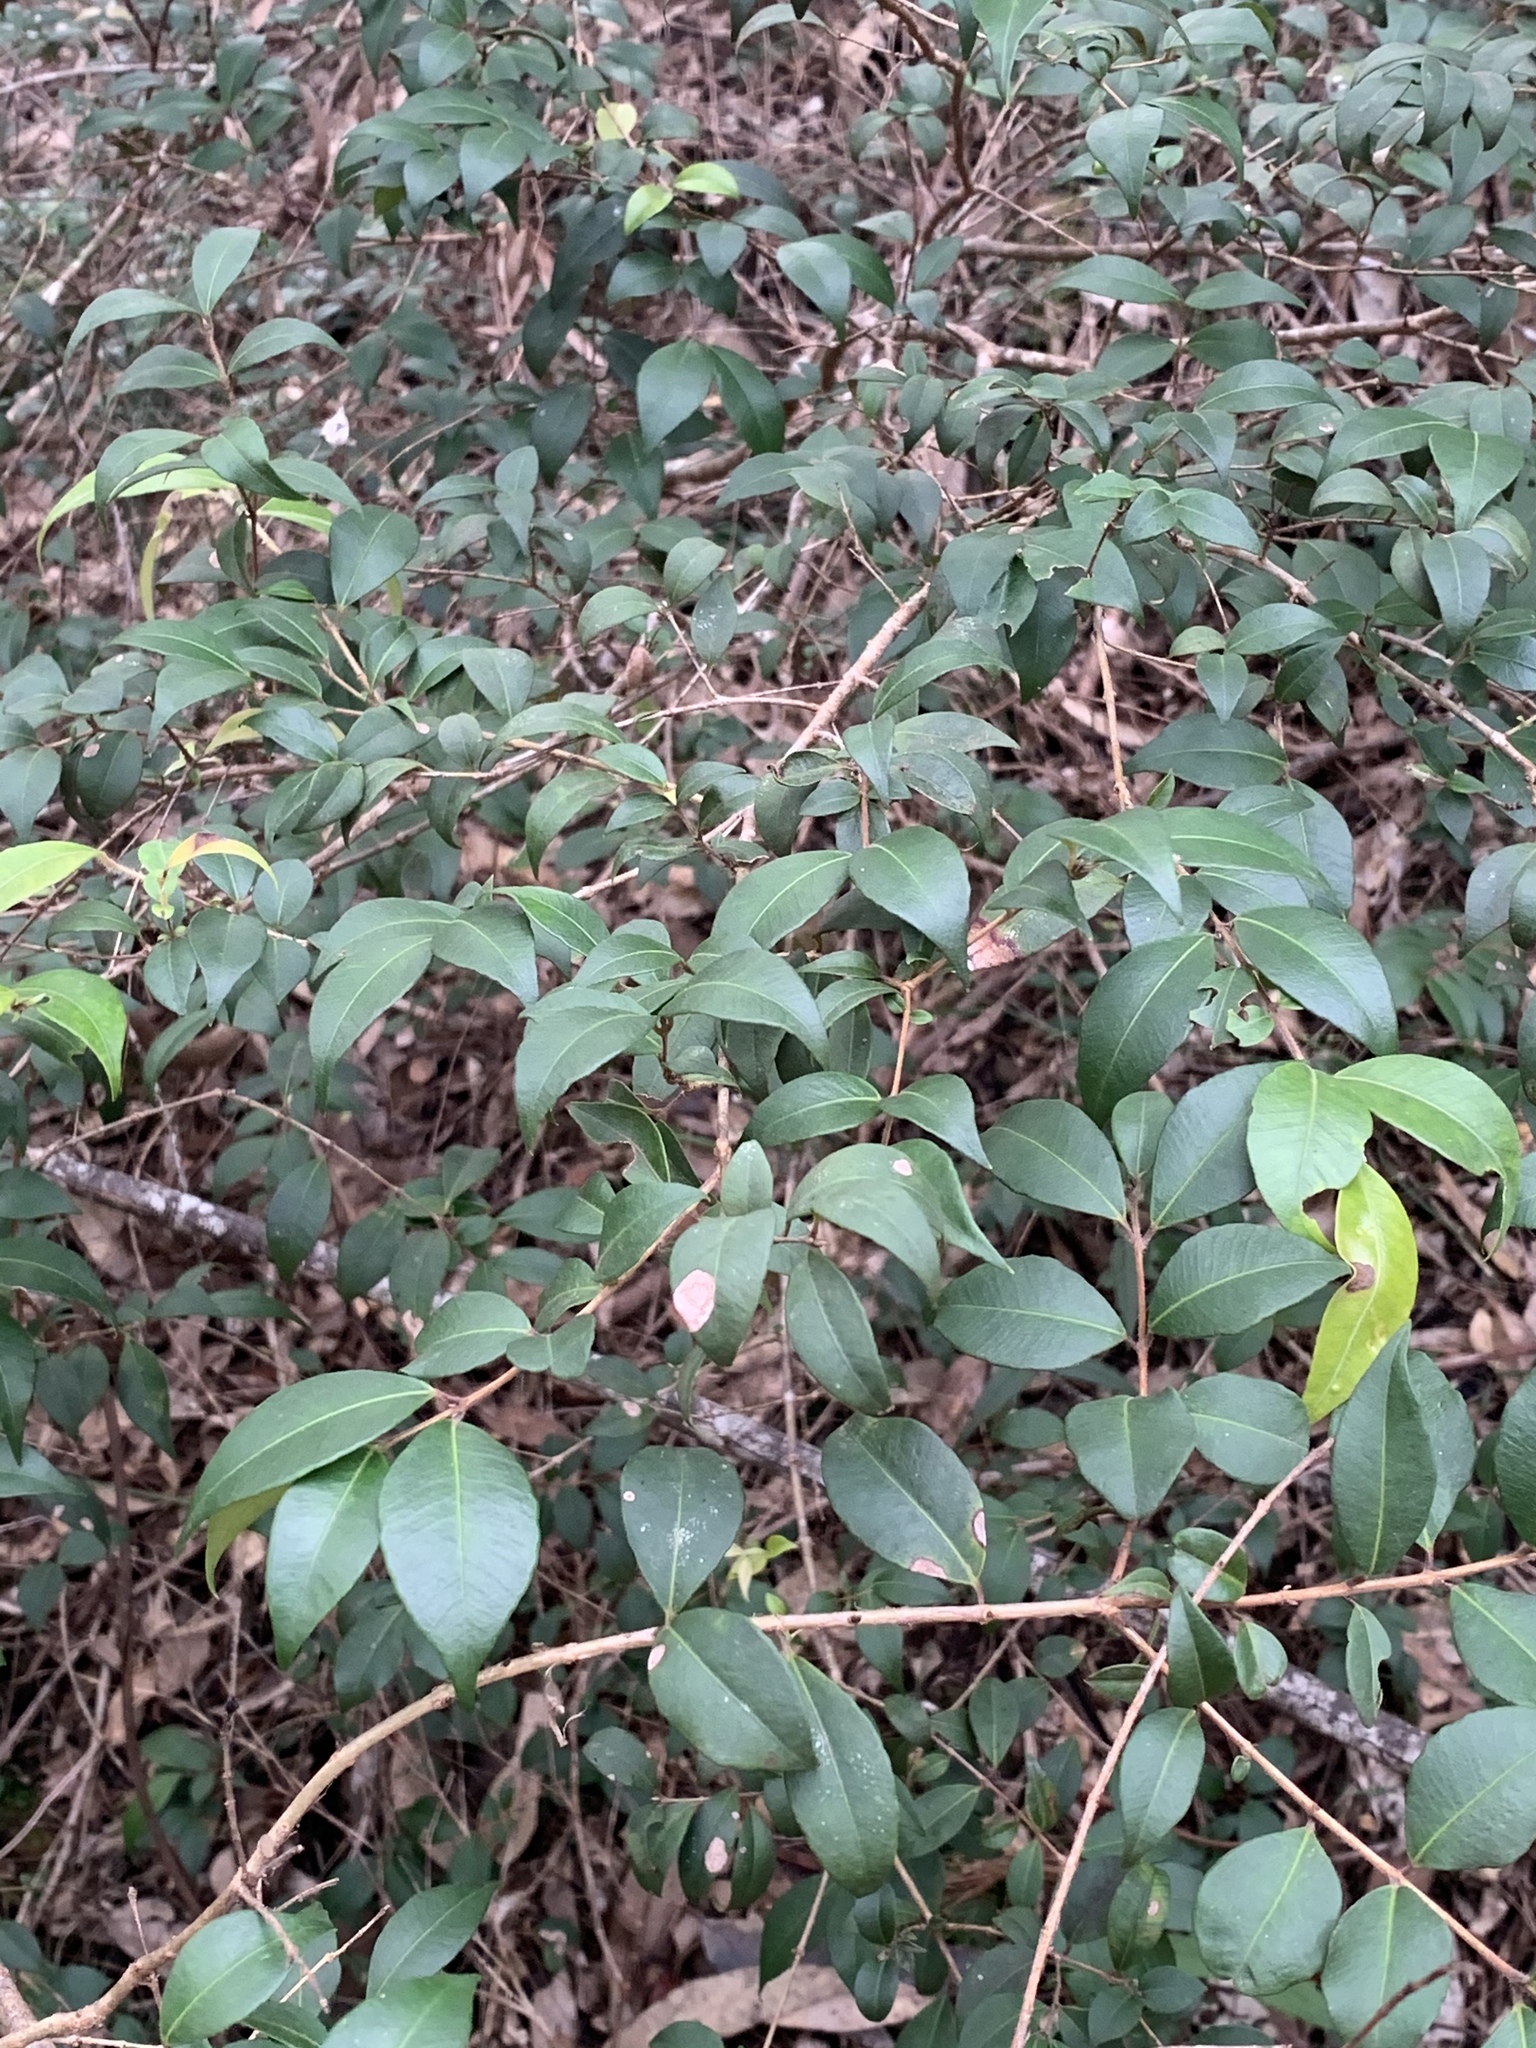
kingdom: Plantae
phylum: Tracheophyta
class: Magnoliopsida
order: Myrtales
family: Myrtaceae
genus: Backhousia
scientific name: Backhousia myrtifolia
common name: Carrol
